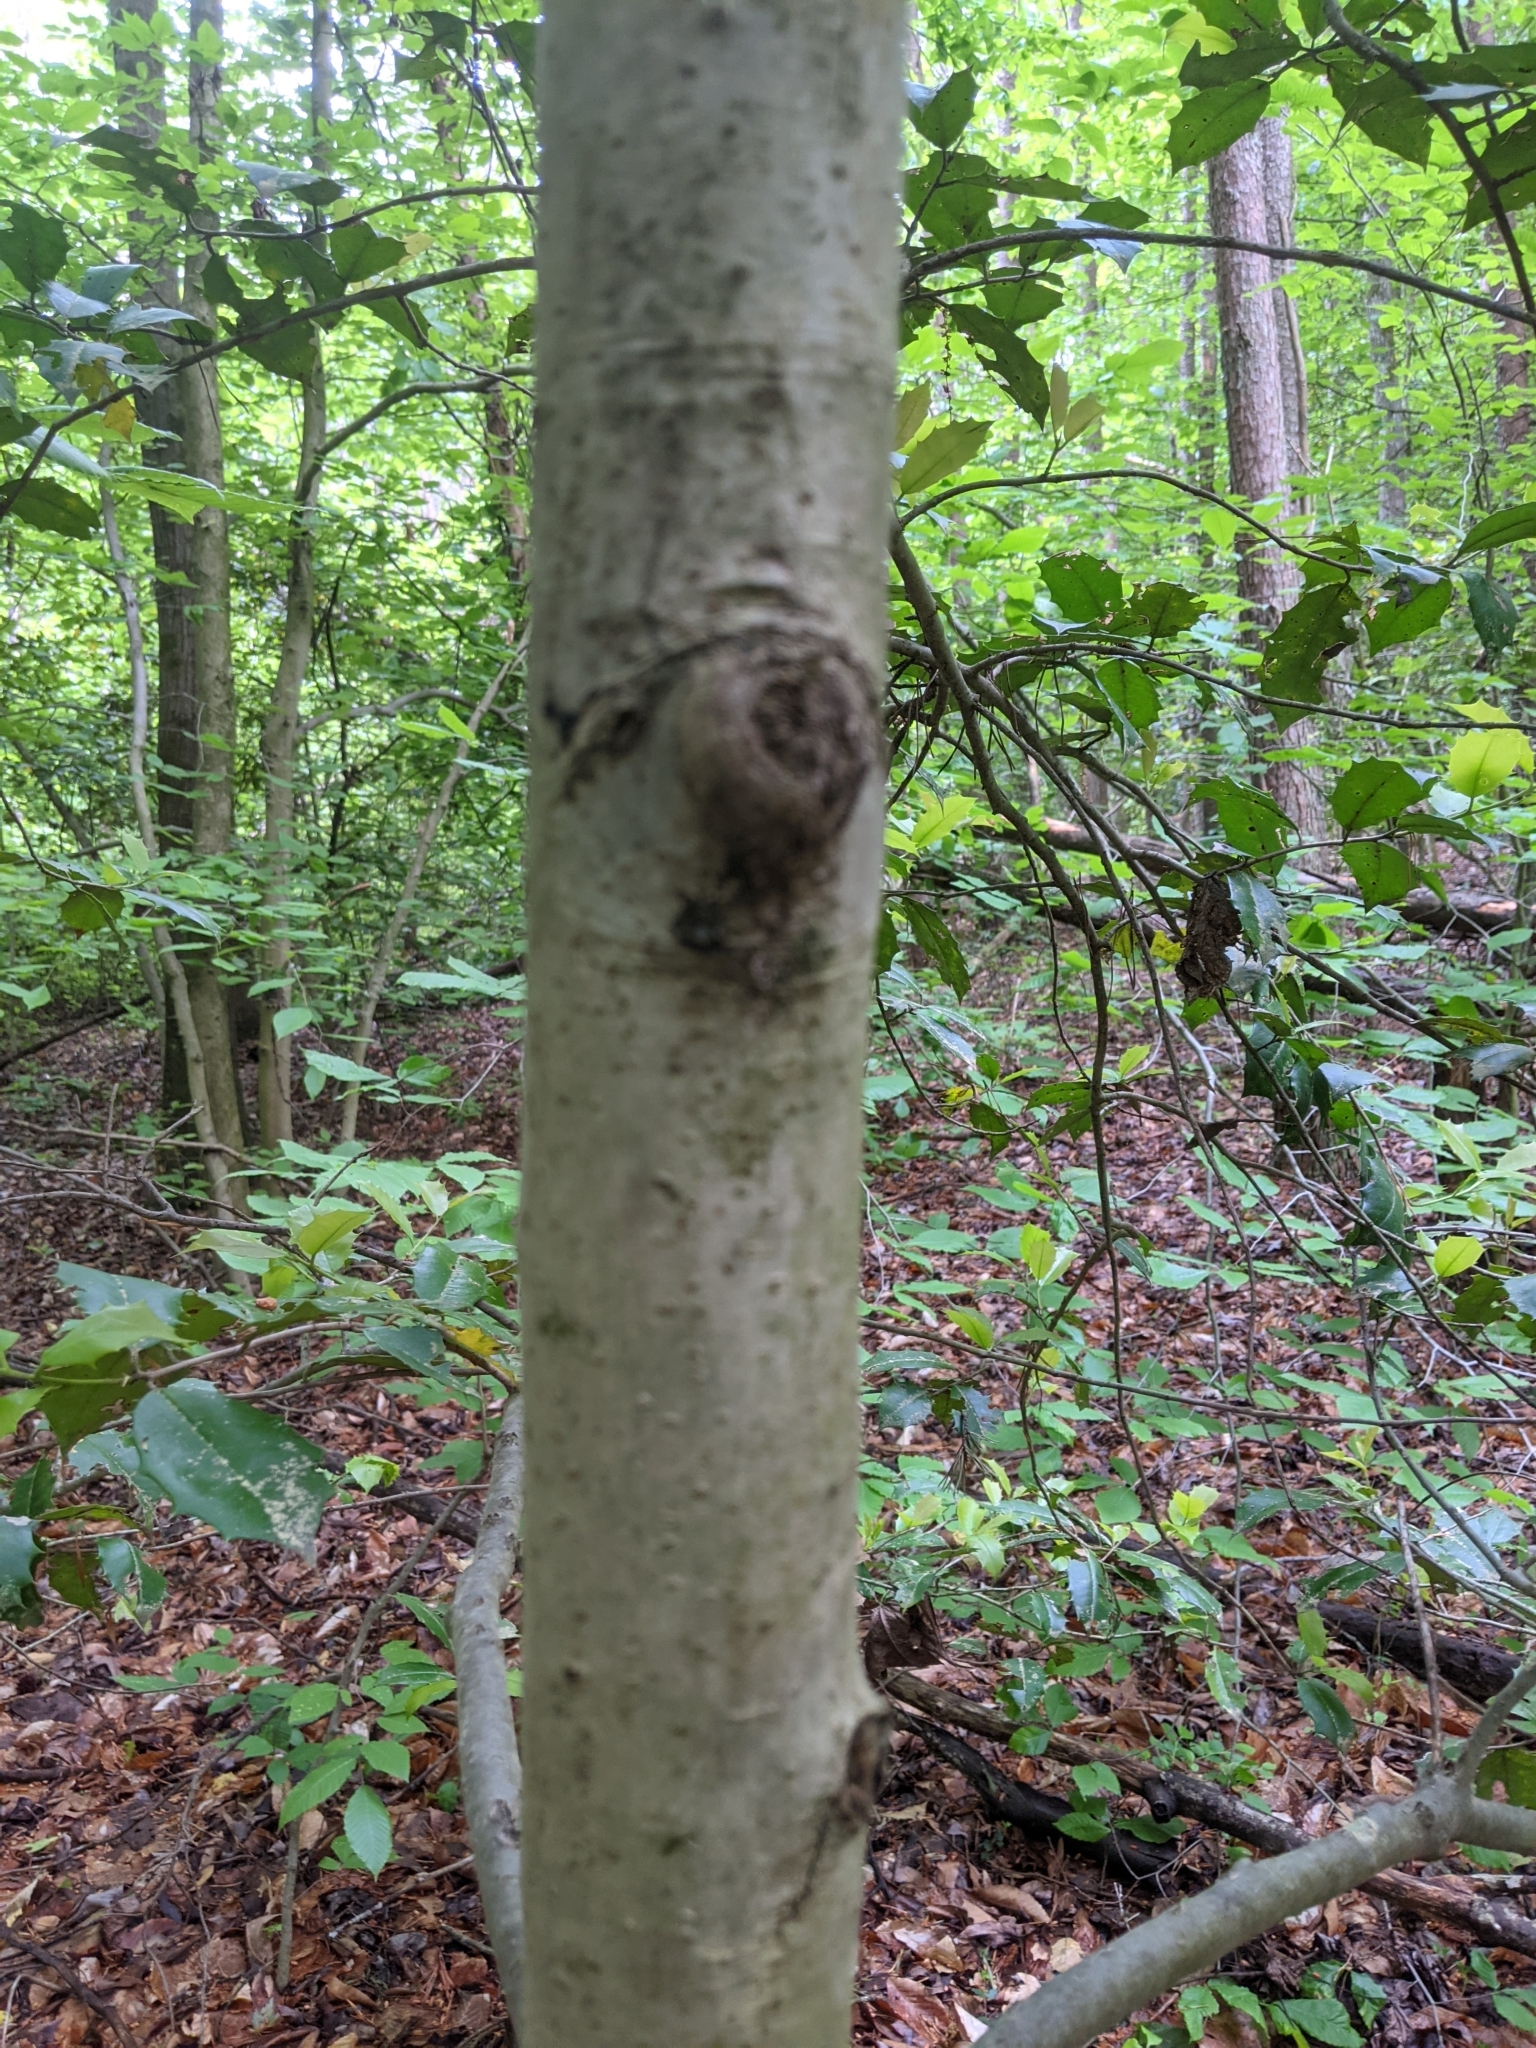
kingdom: Plantae
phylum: Tracheophyta
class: Magnoliopsida
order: Aquifoliales
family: Aquifoliaceae
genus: Ilex
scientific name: Ilex opaca
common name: American holly
